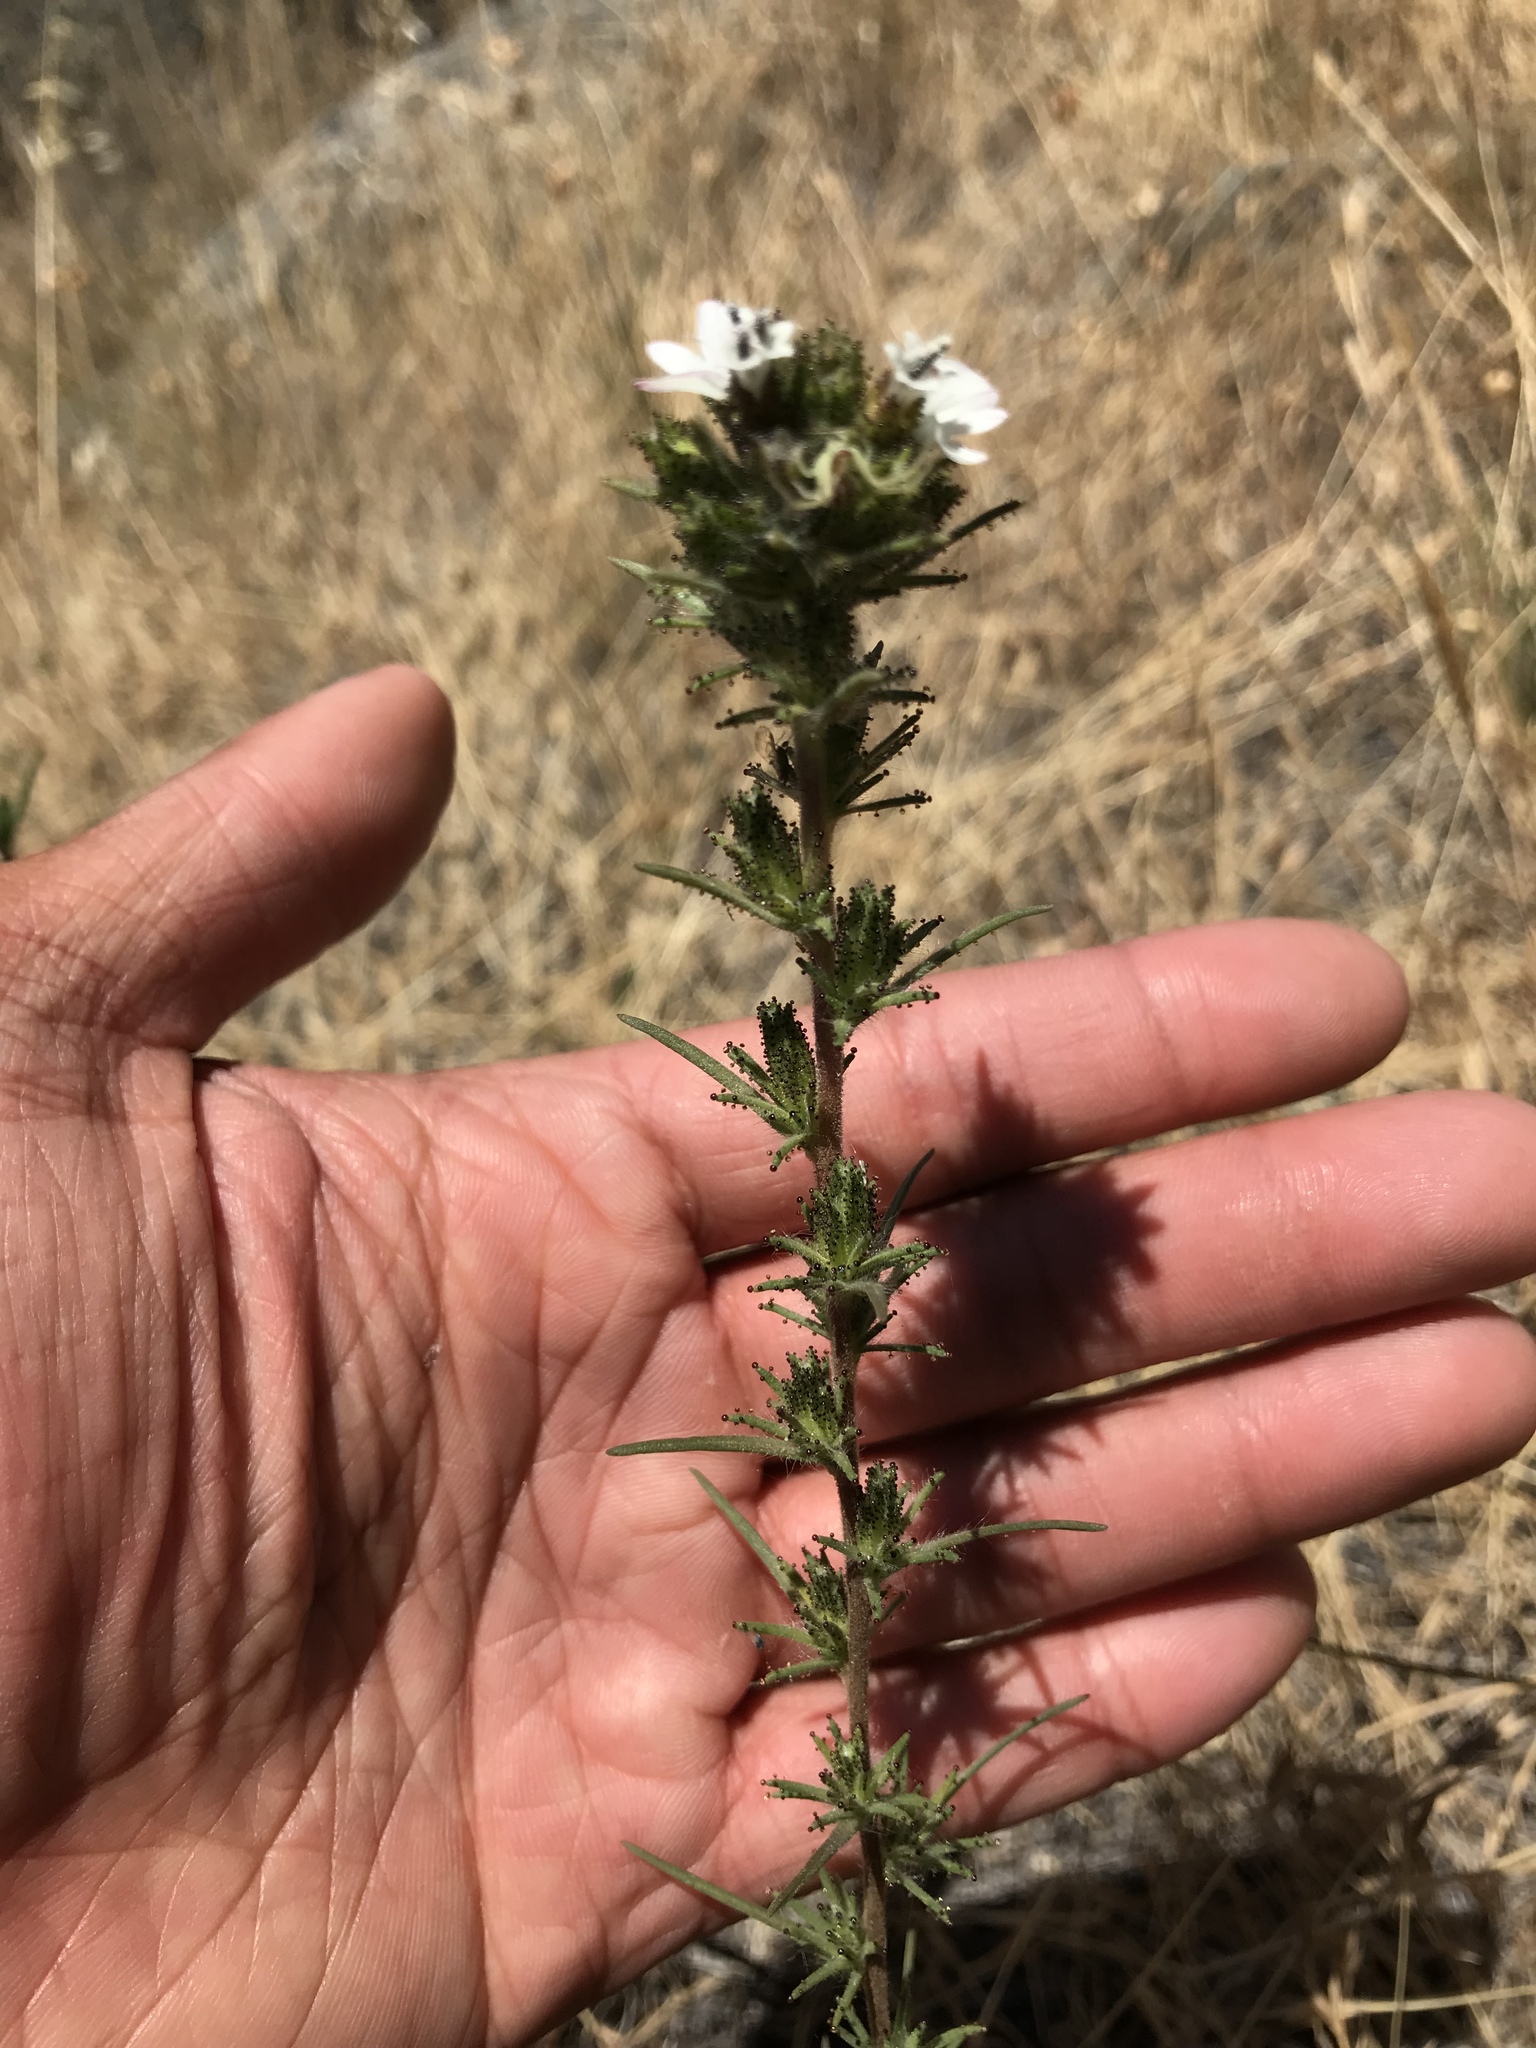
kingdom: Plantae
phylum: Tracheophyta
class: Magnoliopsida
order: Asterales
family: Asteraceae
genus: Calycadenia
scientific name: Calycadenia multiglandulosa
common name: Sticky calycadenia
